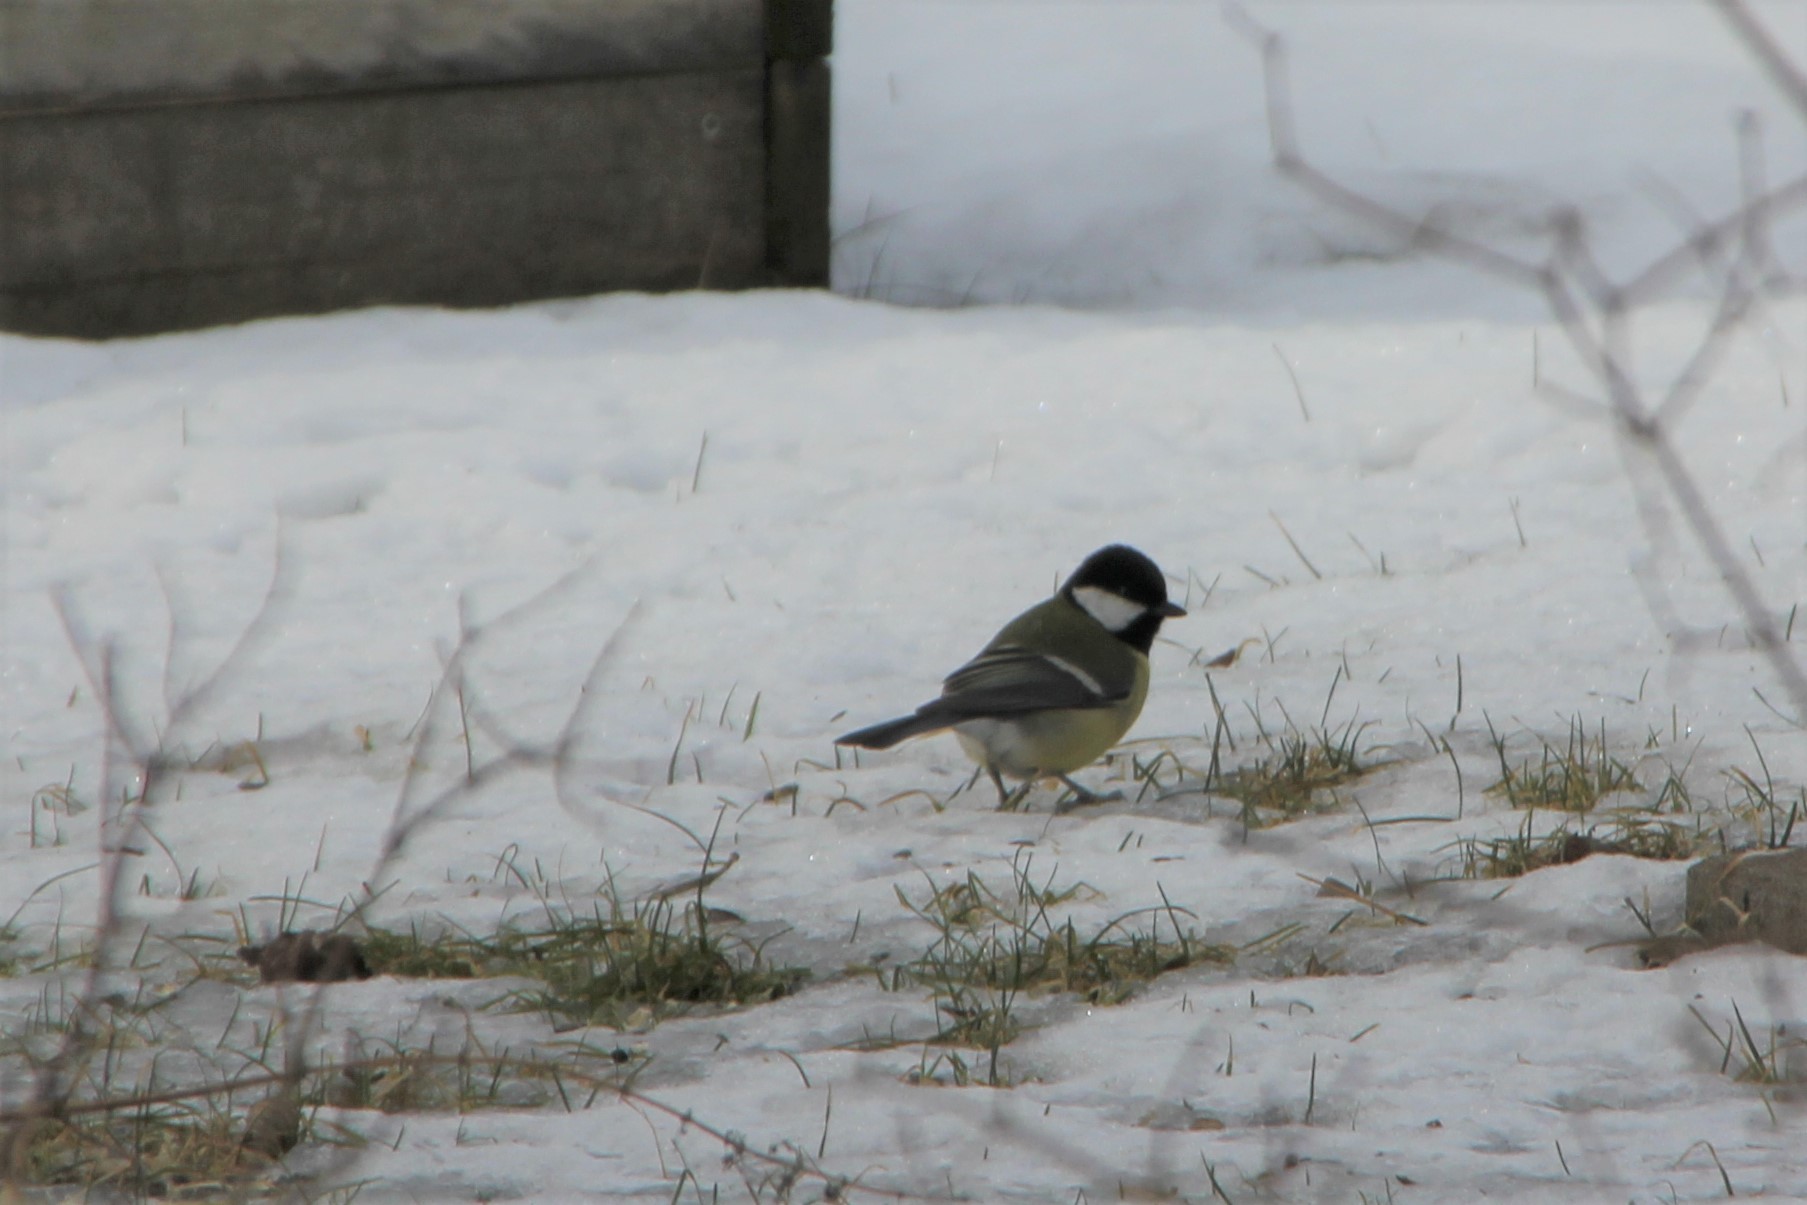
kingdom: Animalia
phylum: Chordata
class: Aves
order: Passeriformes
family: Paridae
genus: Parus
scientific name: Parus major
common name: Great tit
